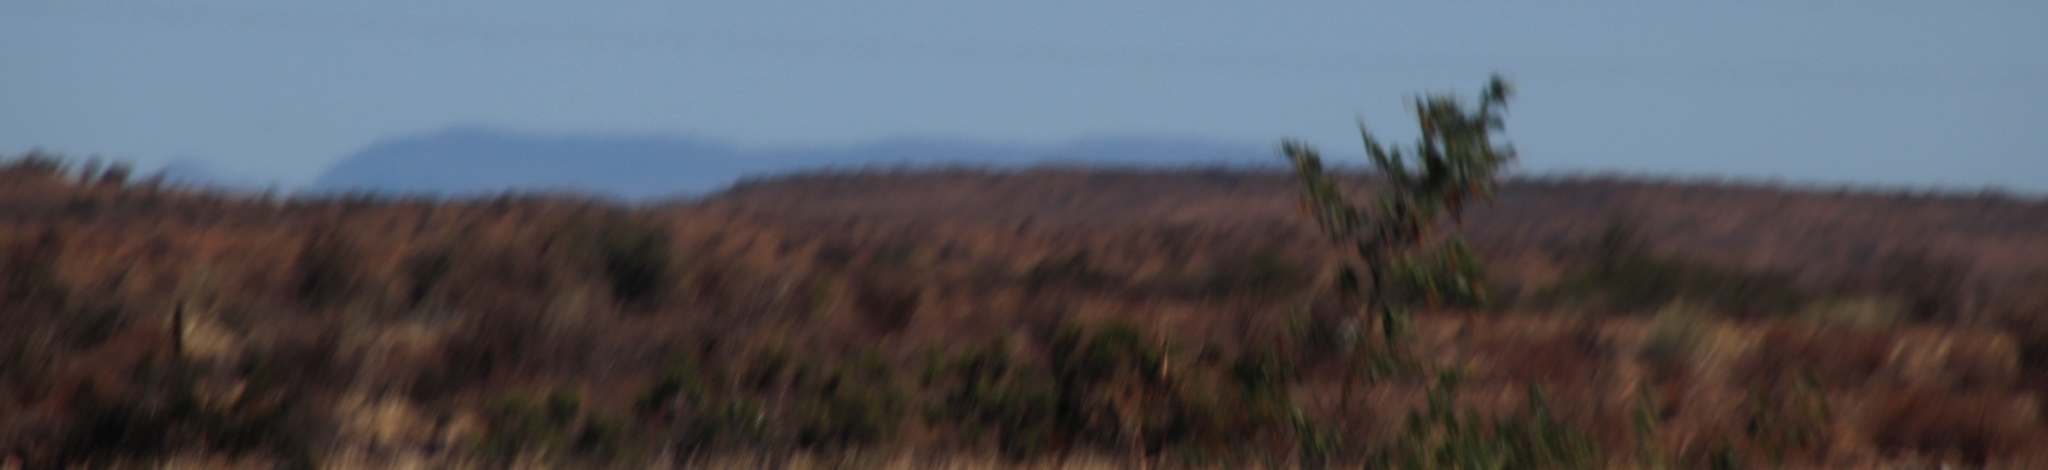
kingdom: Plantae
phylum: Tracheophyta
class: Magnoliopsida
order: Fabales
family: Fabaceae
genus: Vachellia
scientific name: Vachellia karroo
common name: Sweet thorn
